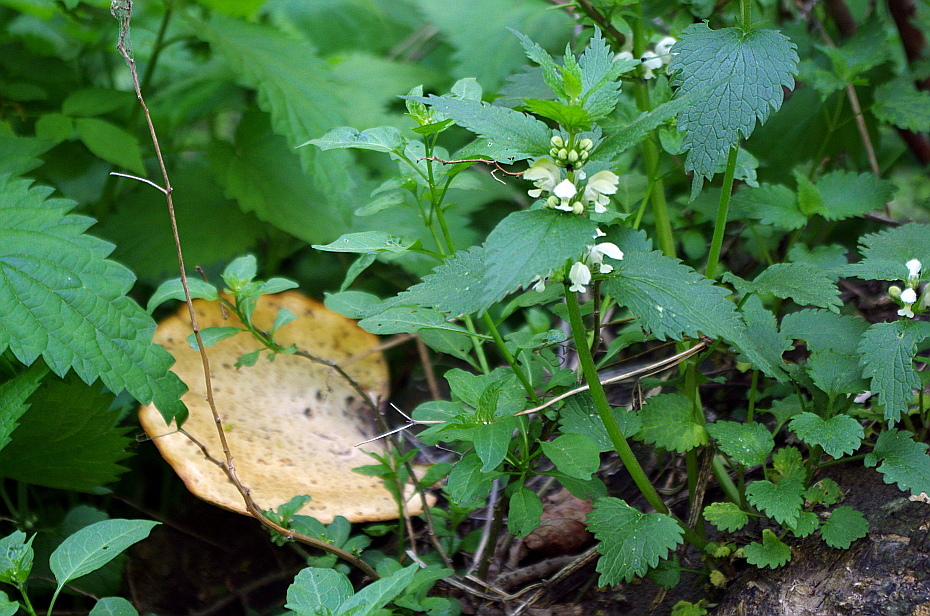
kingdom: Plantae
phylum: Tracheophyta
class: Magnoliopsida
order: Lamiales
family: Lamiaceae
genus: Lamium
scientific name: Lamium album
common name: White dead-nettle
